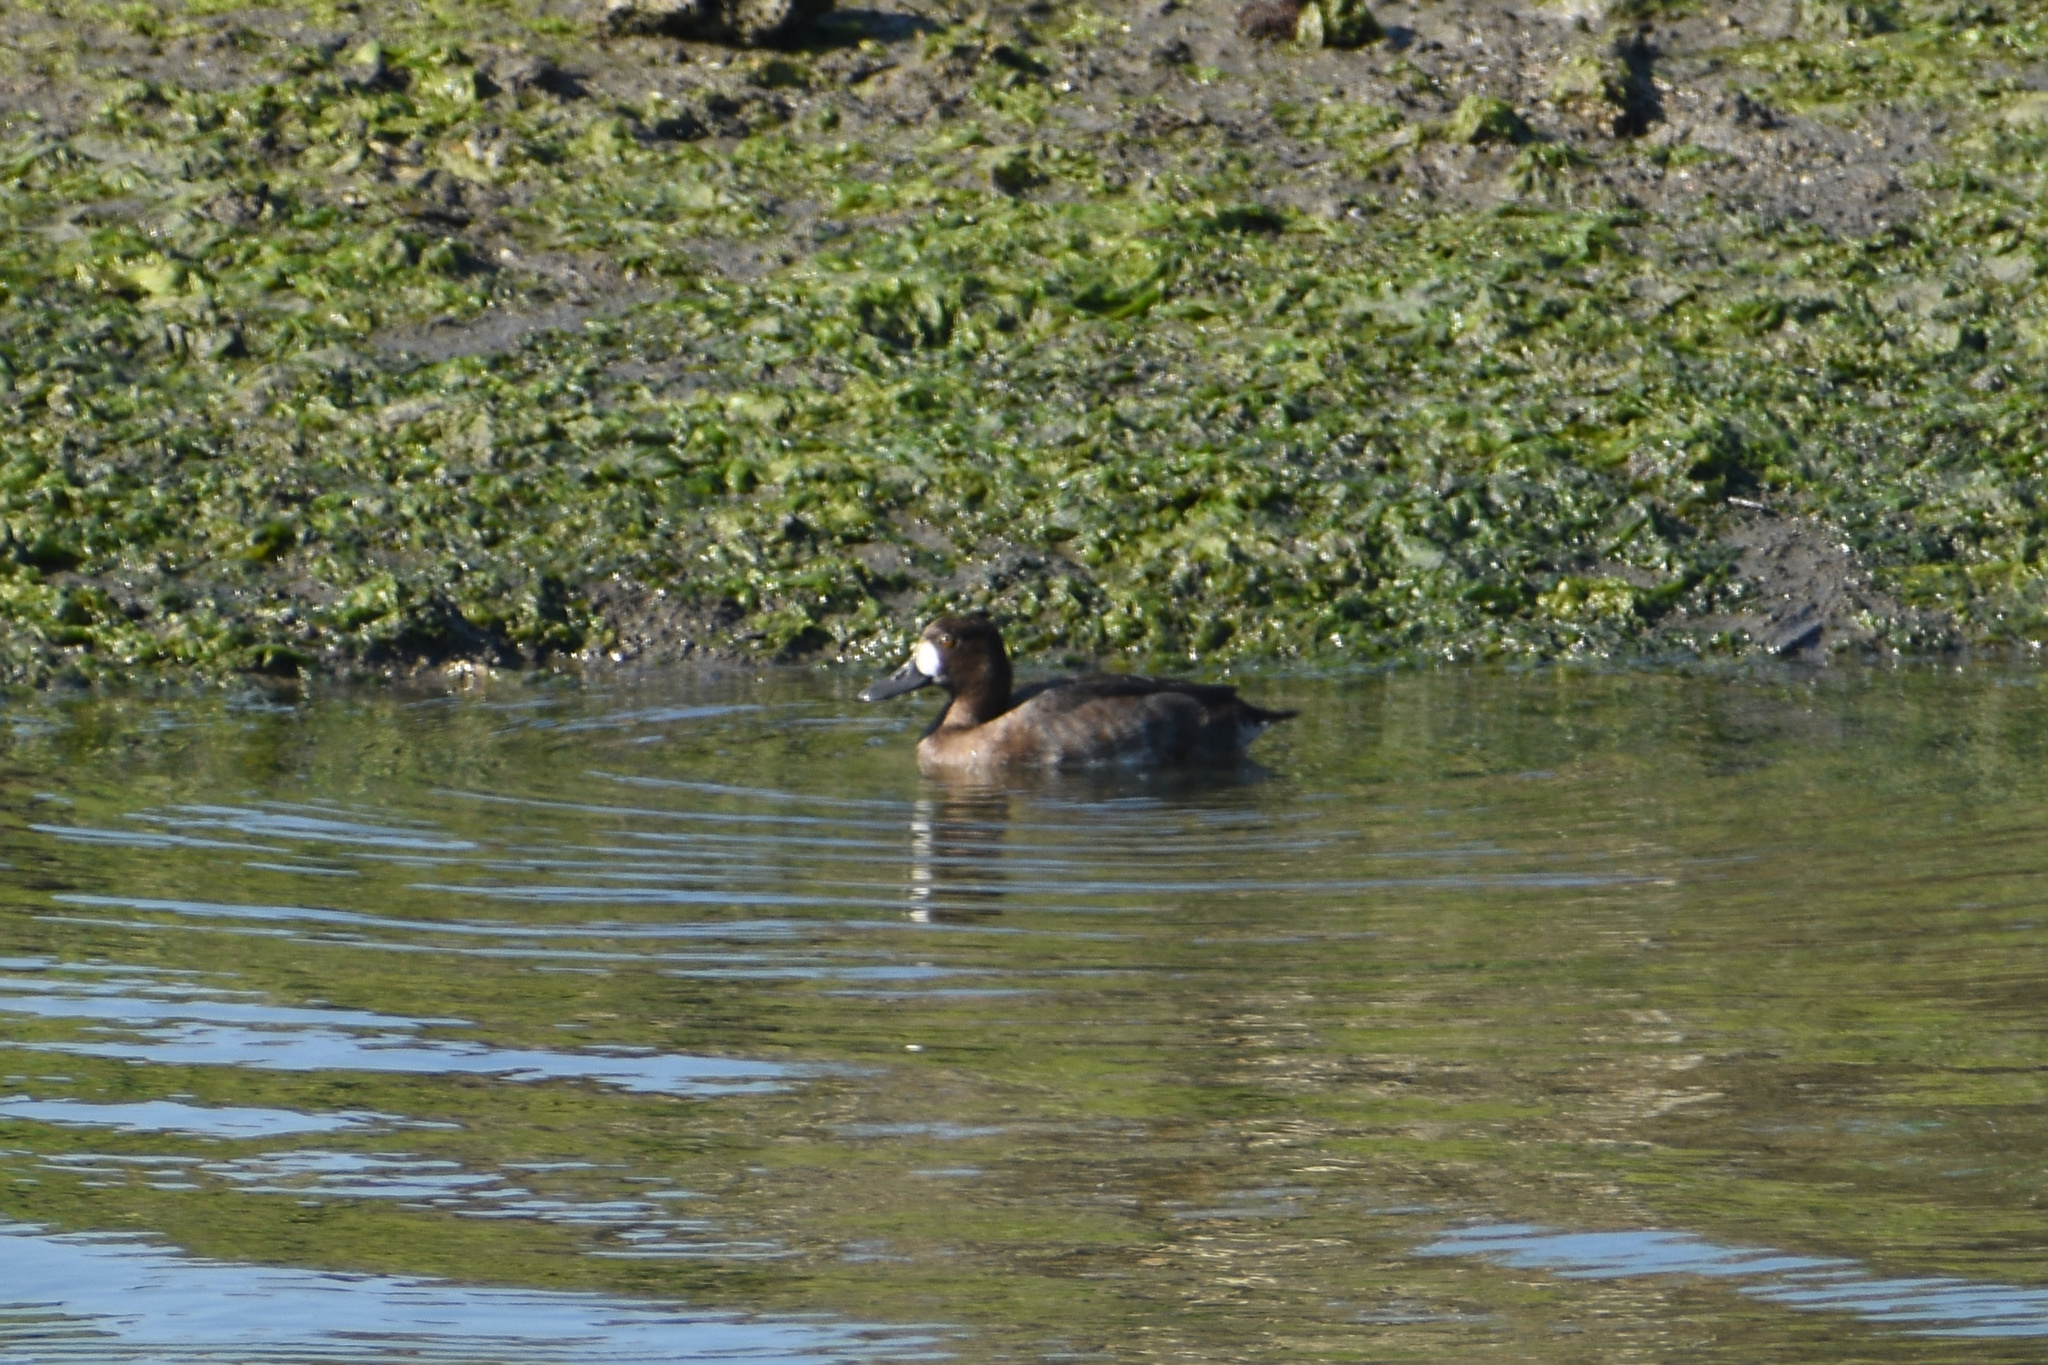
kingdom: Animalia
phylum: Chordata
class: Aves
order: Anseriformes
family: Anatidae
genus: Aythya
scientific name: Aythya affinis
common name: Lesser scaup
